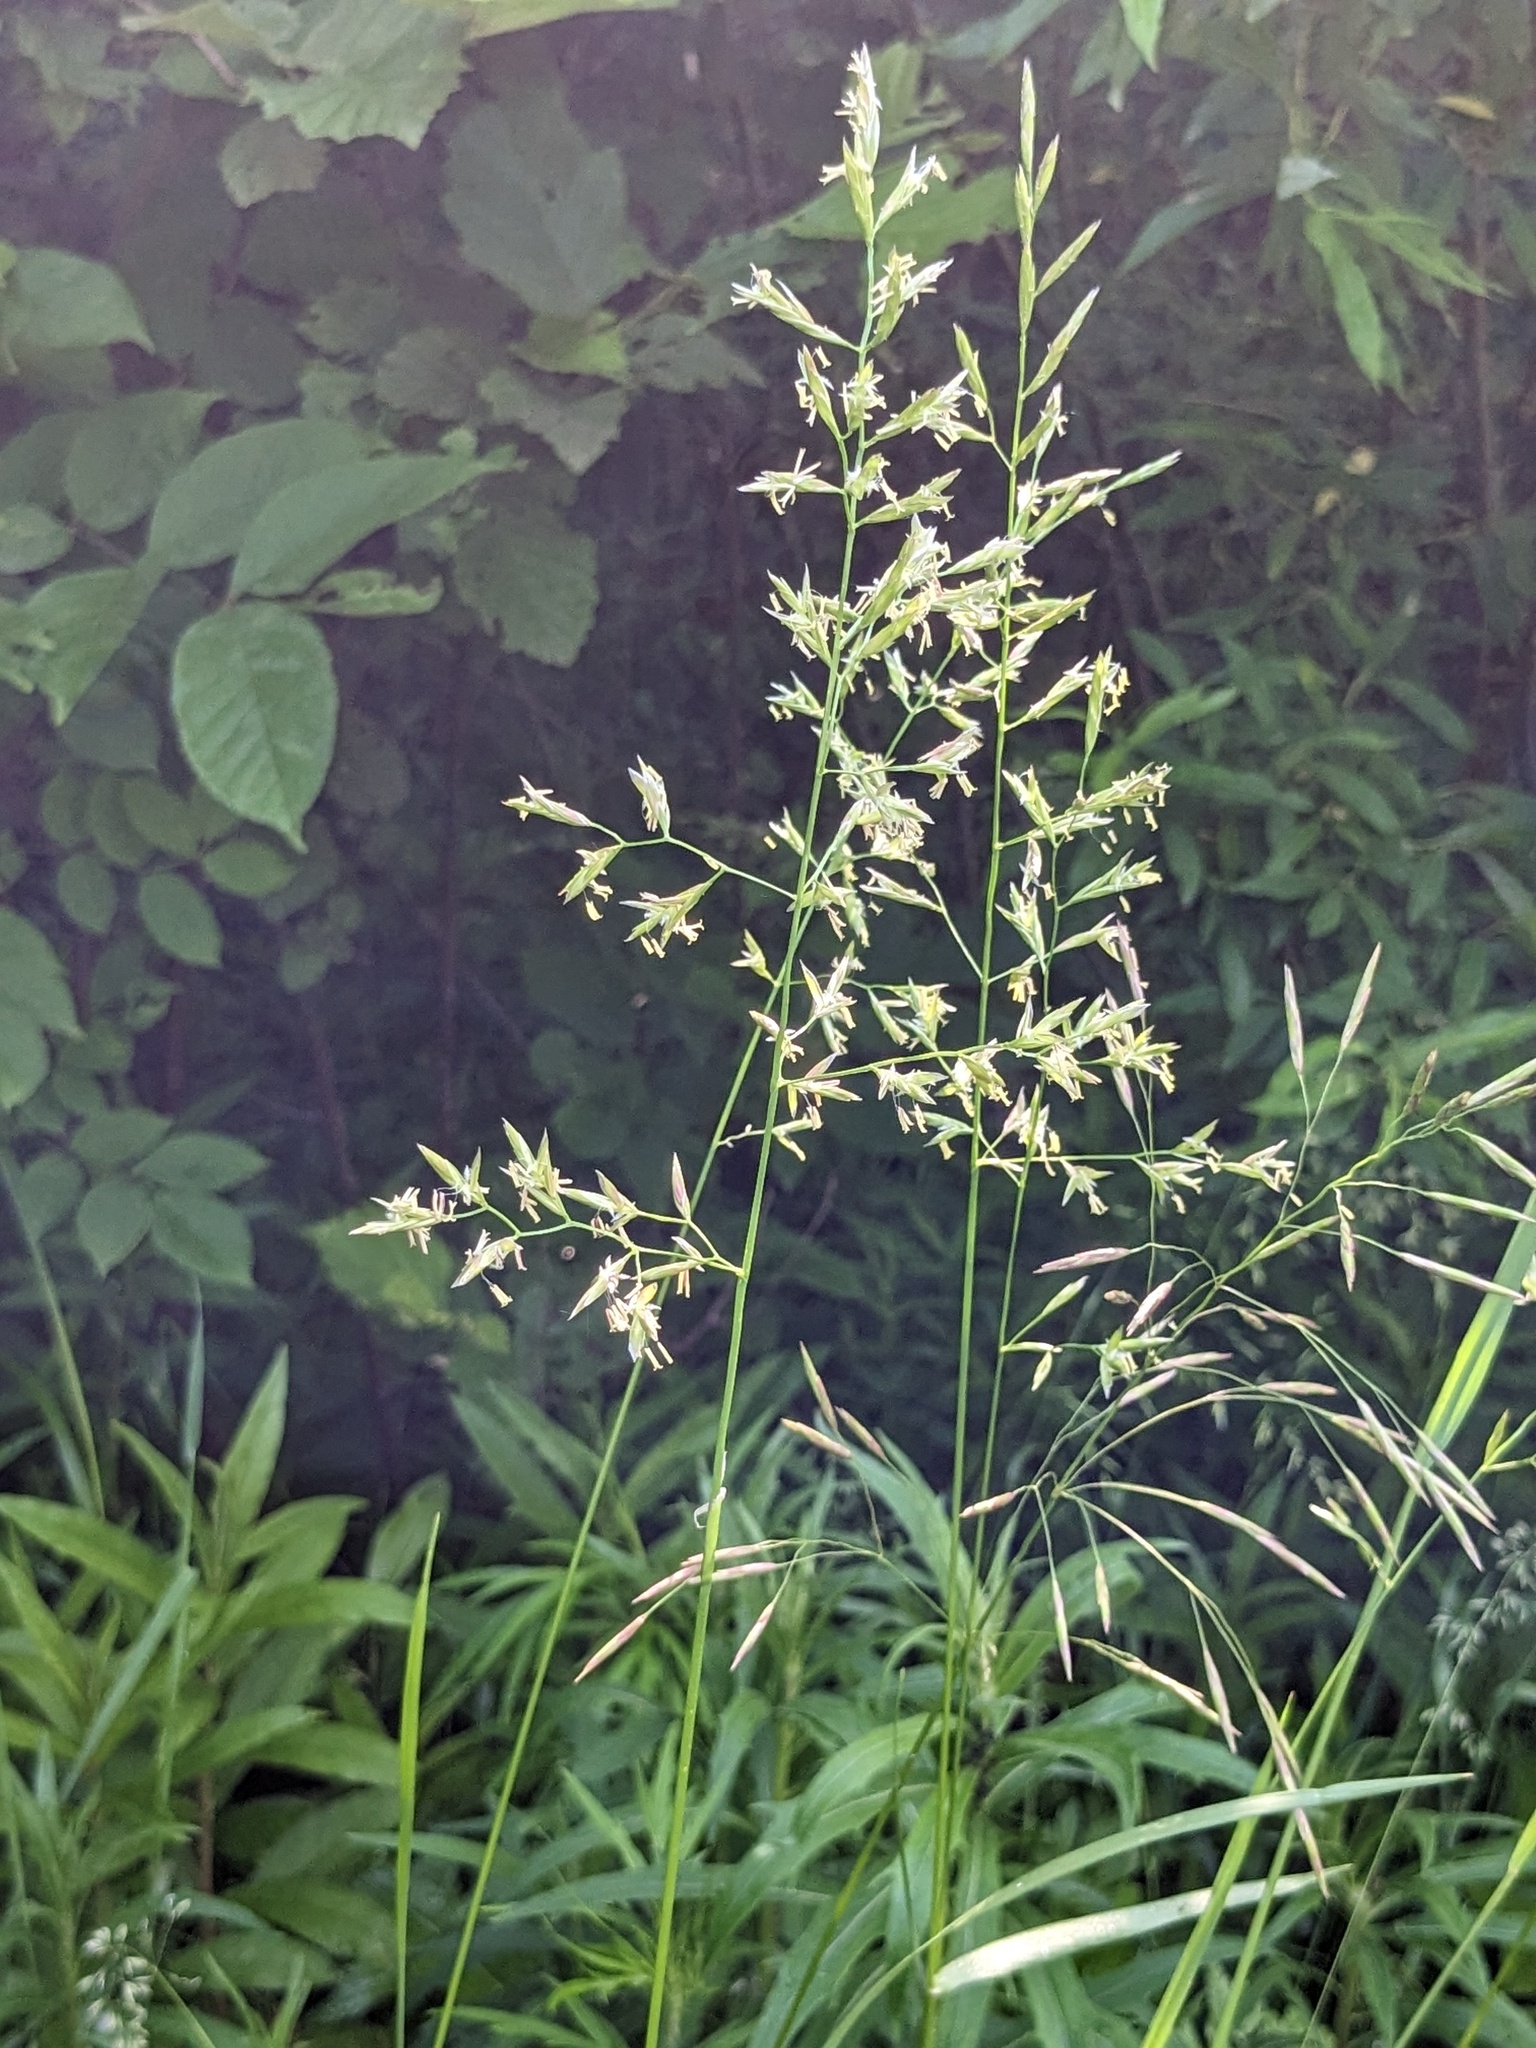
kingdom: Plantae
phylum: Tracheophyta
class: Liliopsida
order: Poales
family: Poaceae
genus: Lolium
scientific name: Lolium pratense
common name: Dover grass
